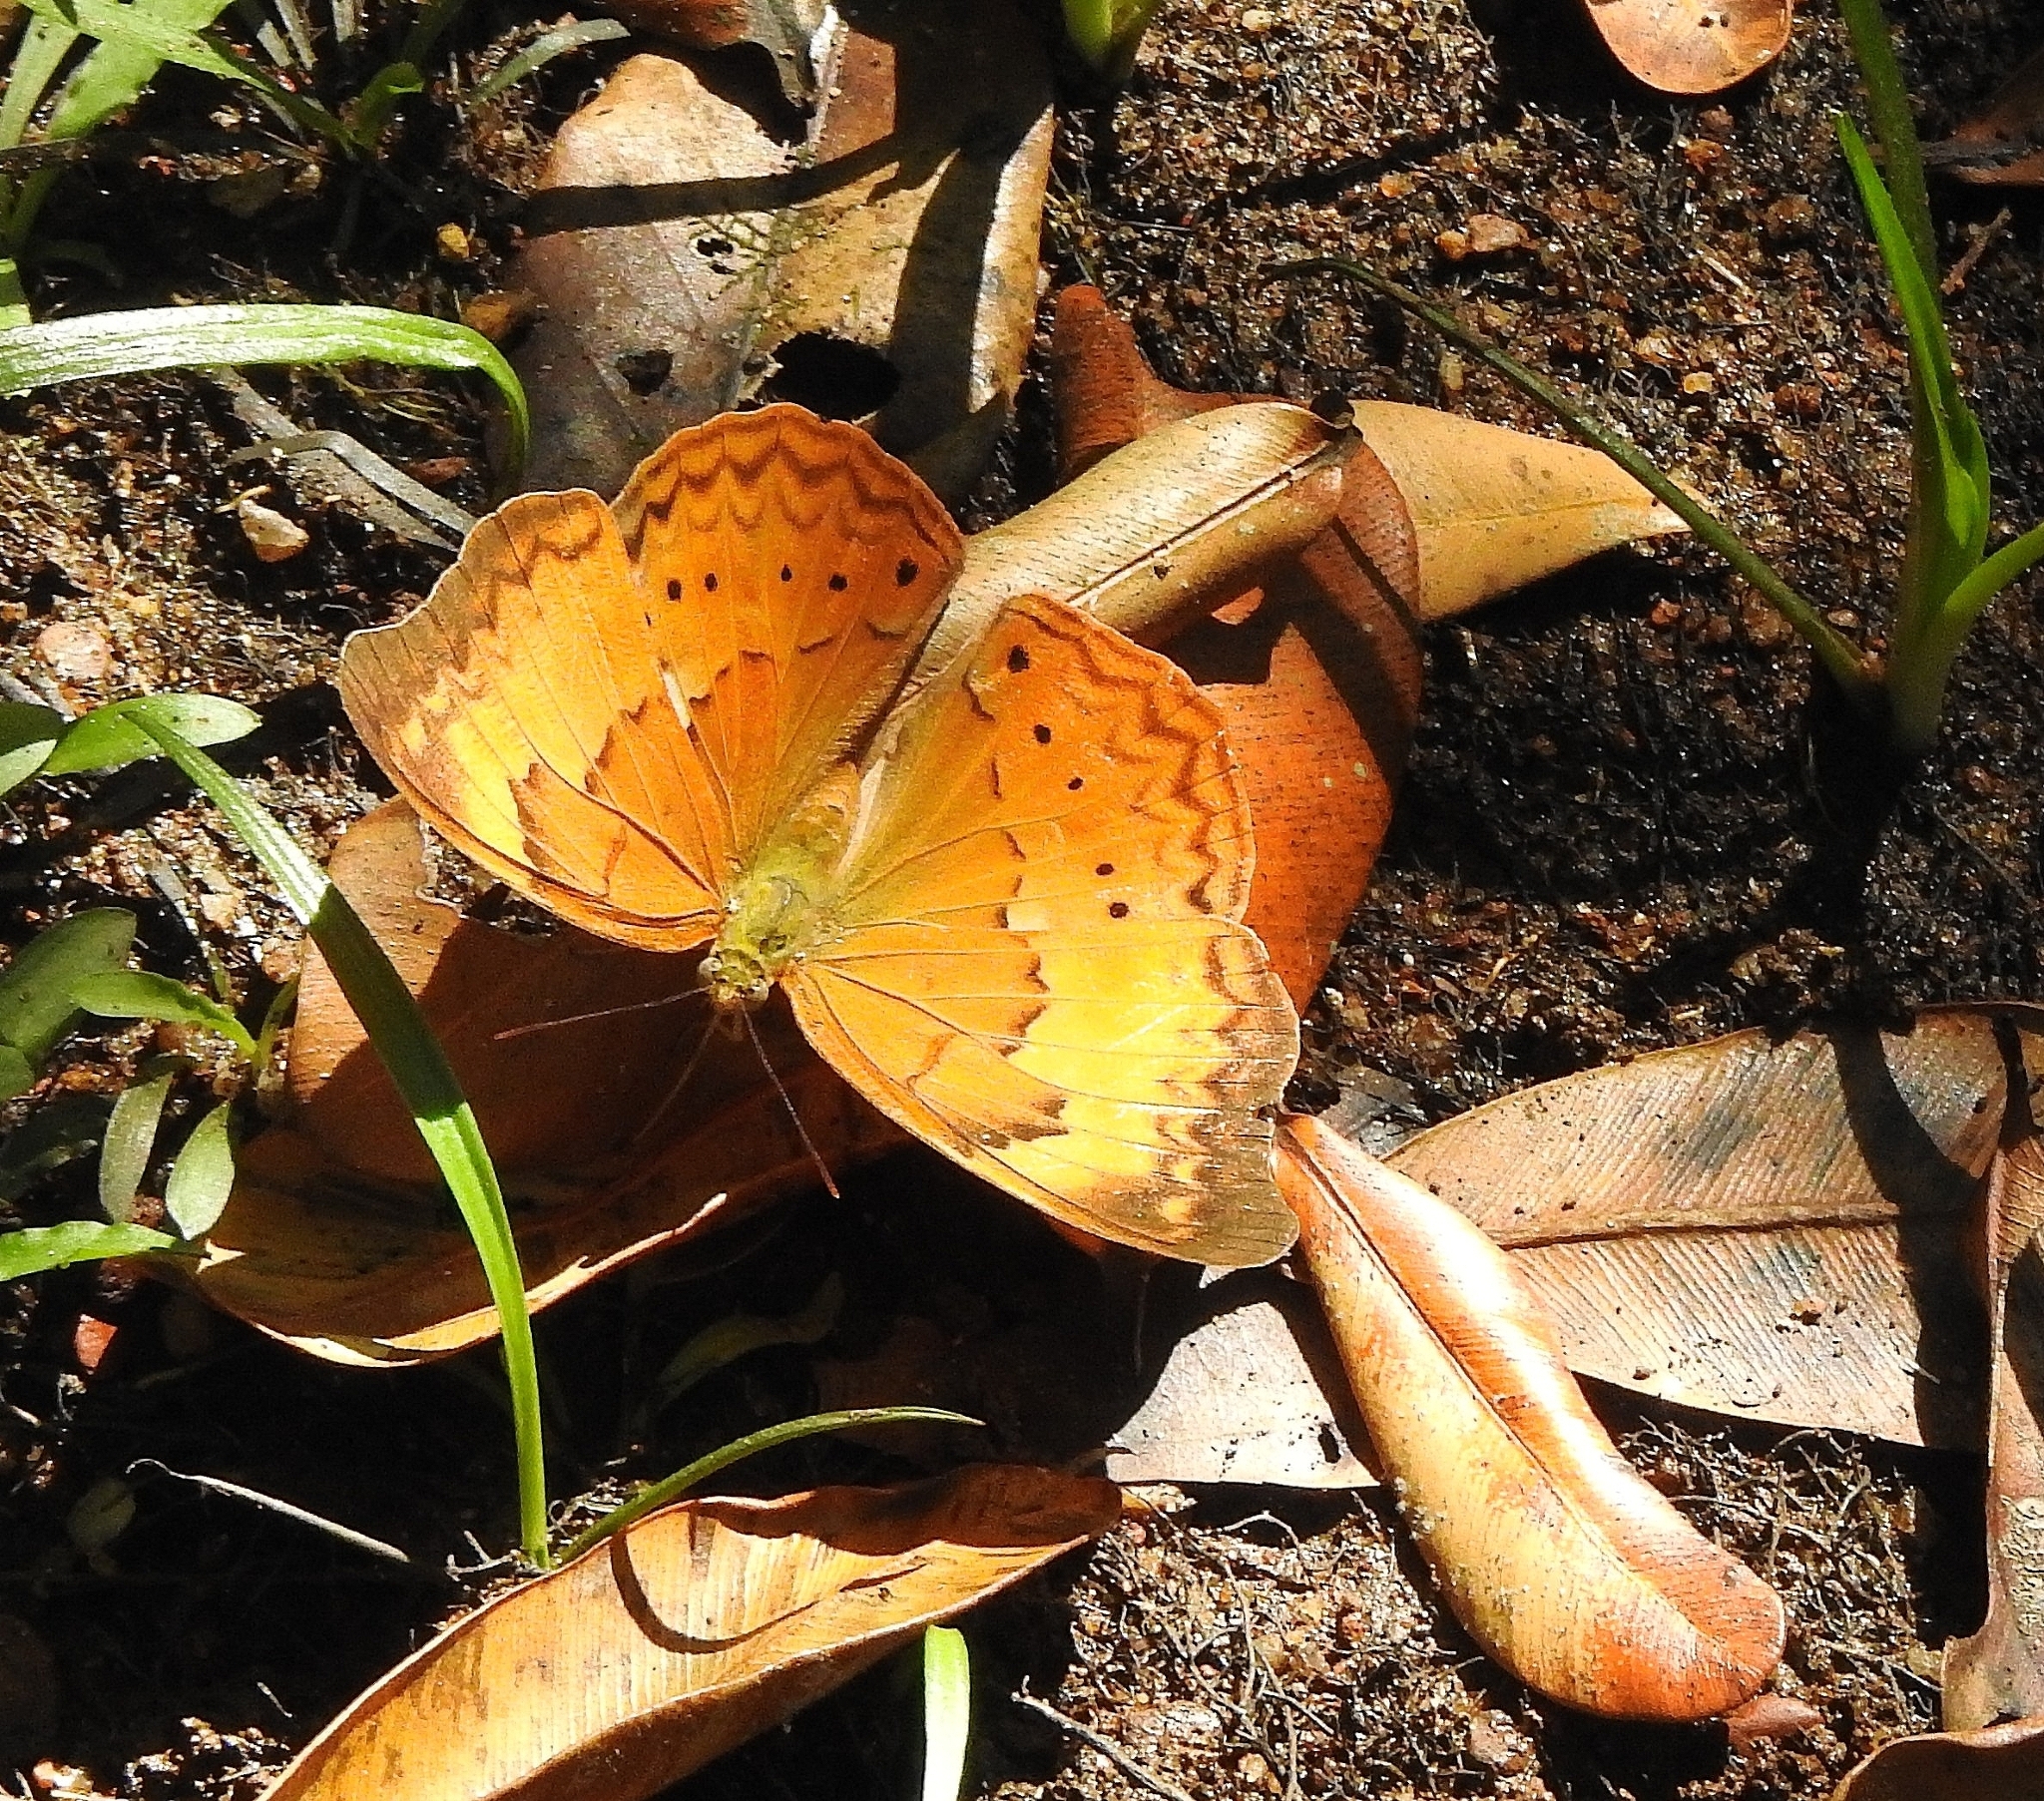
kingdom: Animalia
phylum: Arthropoda
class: Insecta
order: Lepidoptera
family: Nymphalidae
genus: Cirrochroa
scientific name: Cirrochroa thais
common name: Tamil yeoman
